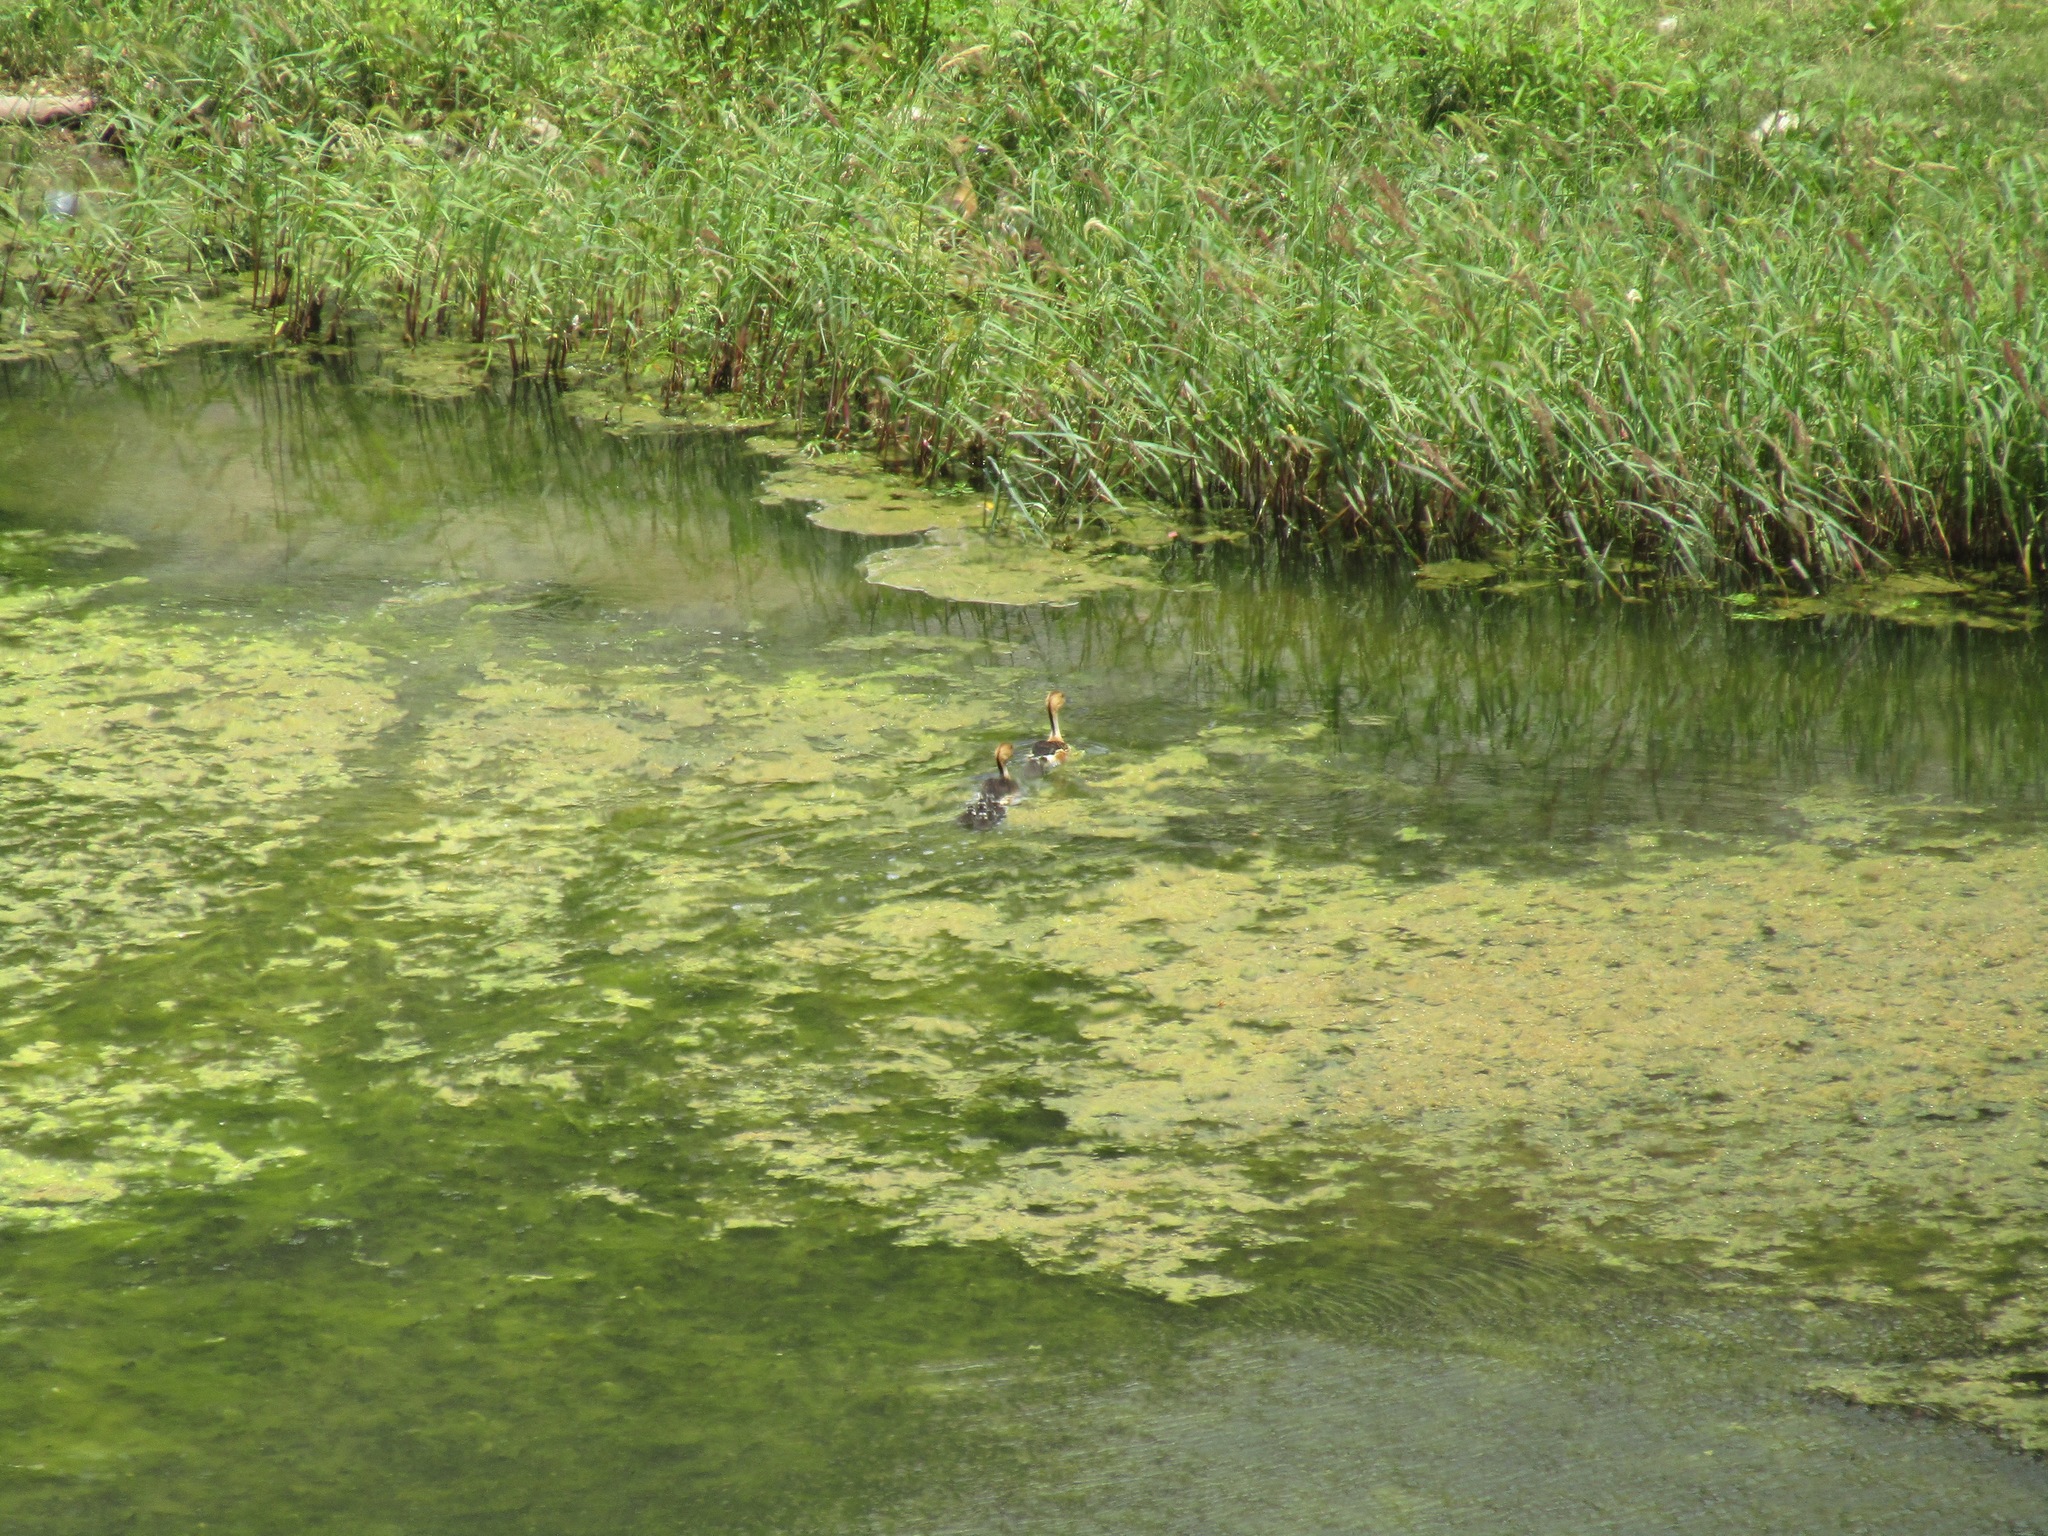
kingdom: Animalia
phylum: Chordata
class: Aves
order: Anseriformes
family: Anatidae
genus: Dendrocygna
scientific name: Dendrocygna bicolor
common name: Fulvous whistling duck
